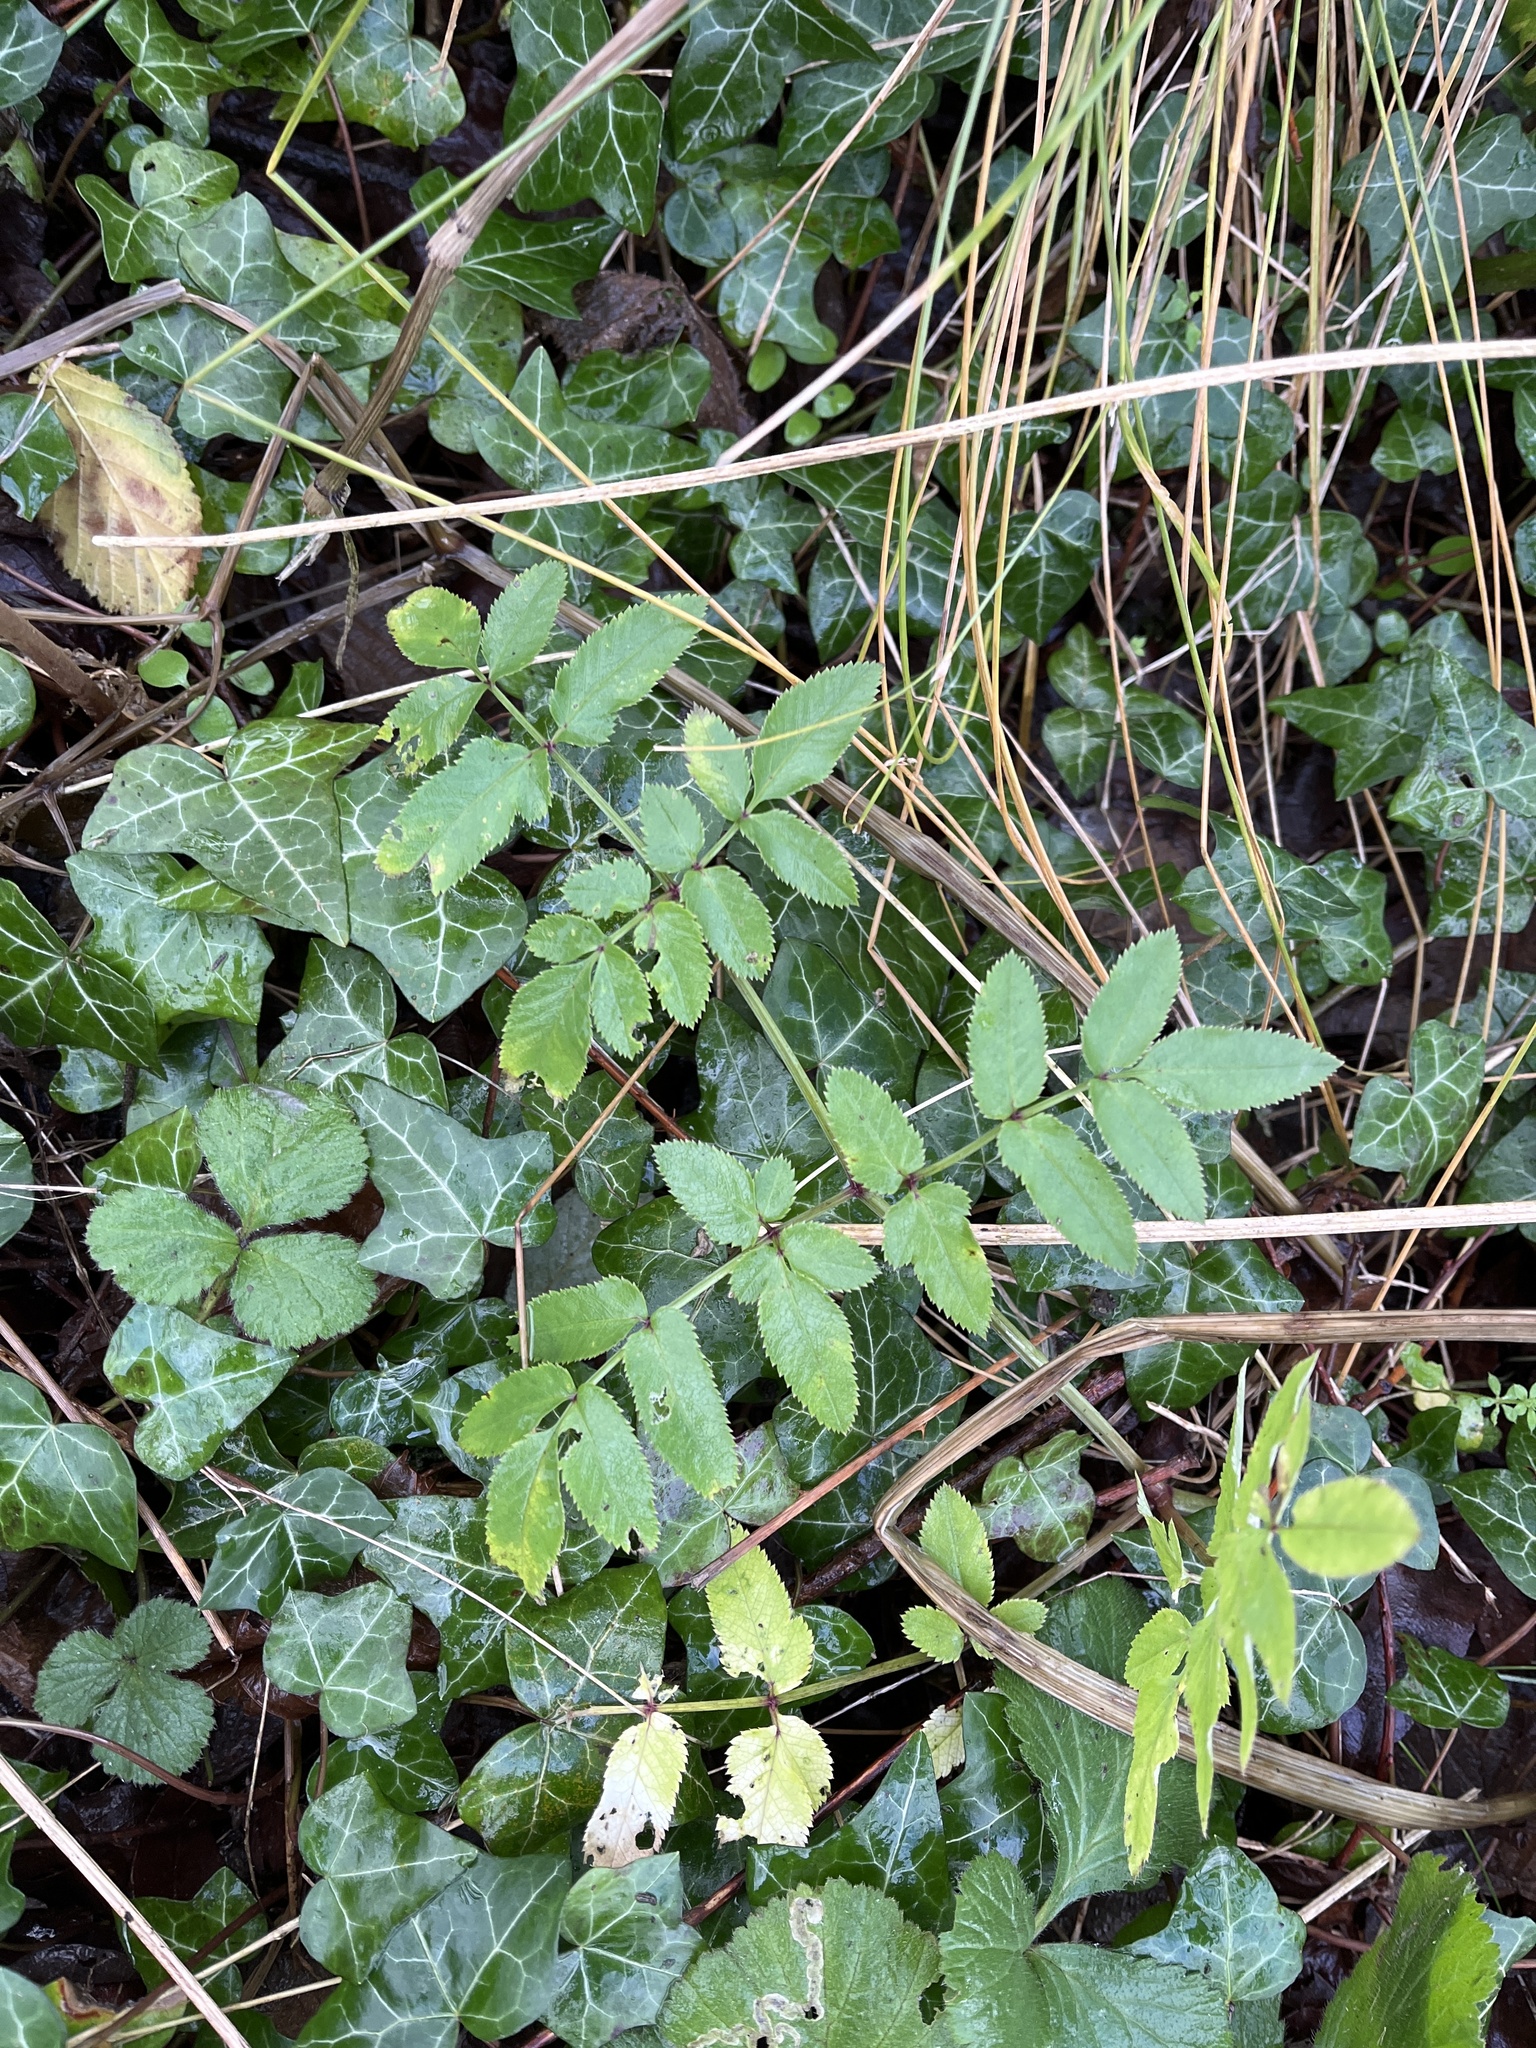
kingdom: Plantae
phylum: Tracheophyta
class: Magnoliopsida
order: Apiales
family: Apiaceae
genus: Angelica
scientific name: Angelica sylvestris
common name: Wild angelica
